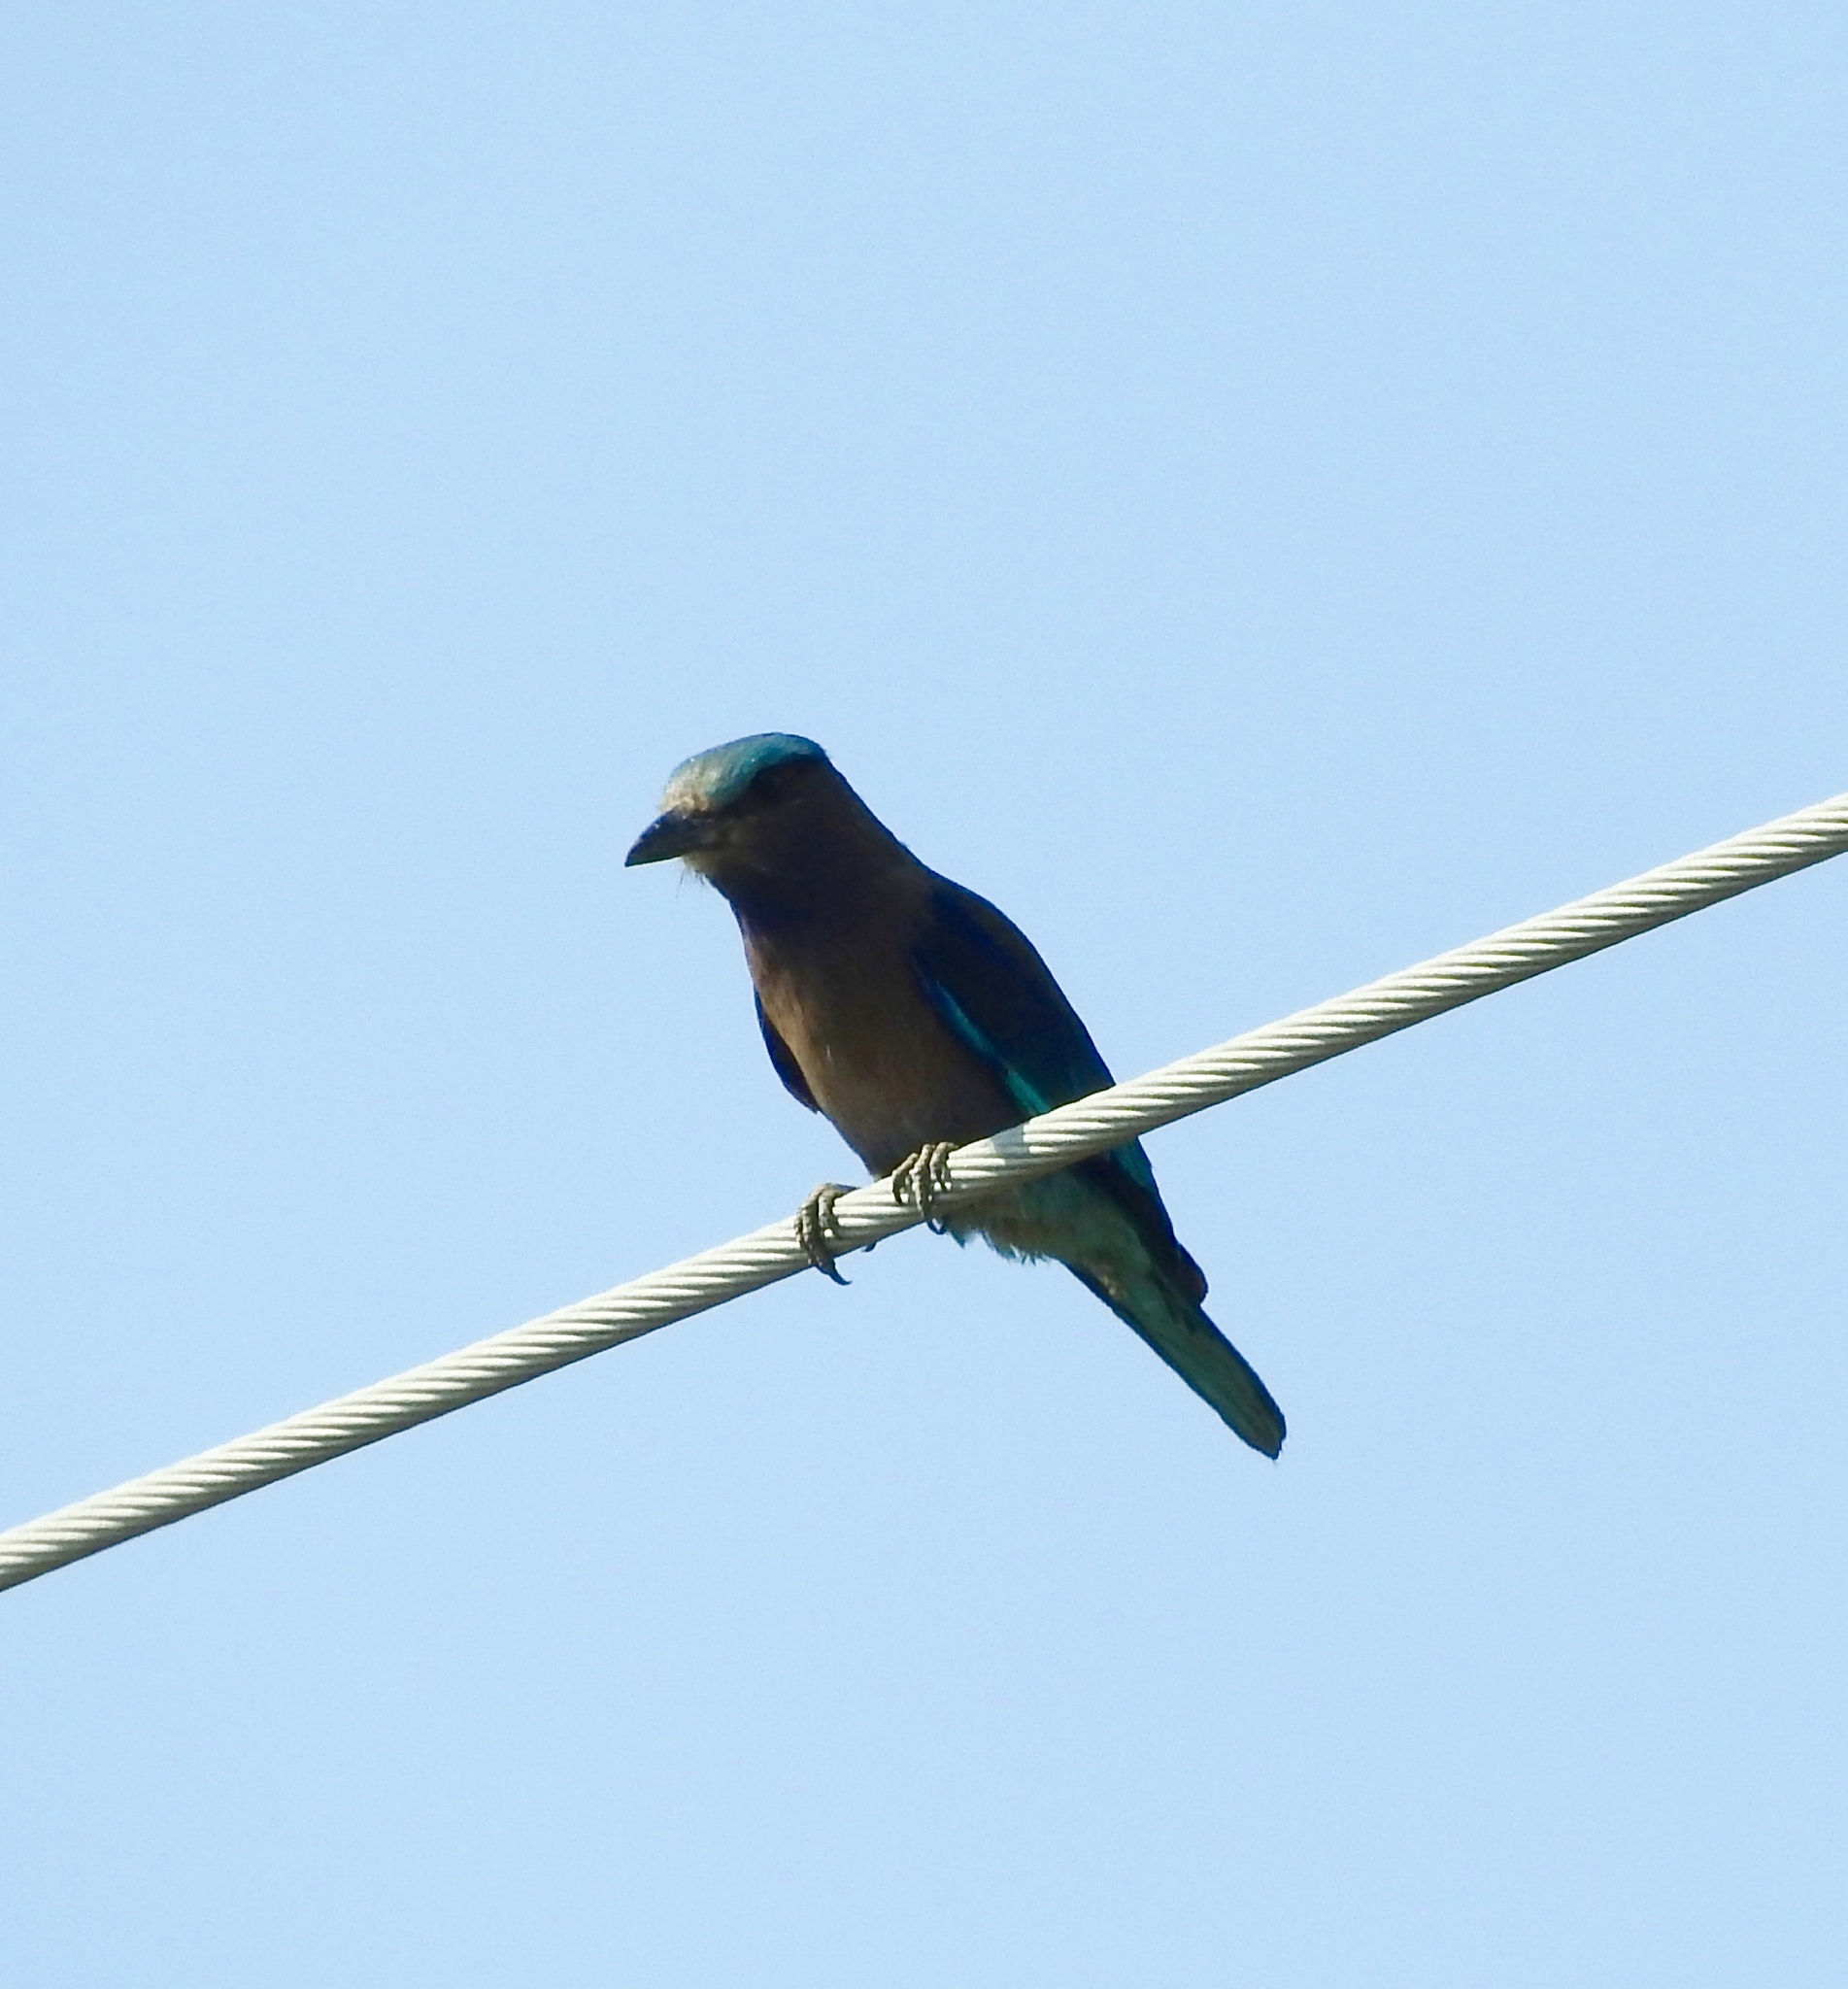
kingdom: Animalia
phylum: Chordata
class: Aves
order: Coraciiformes
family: Coraciidae
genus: Coracias
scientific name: Coracias affinis
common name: Indochinese roller
